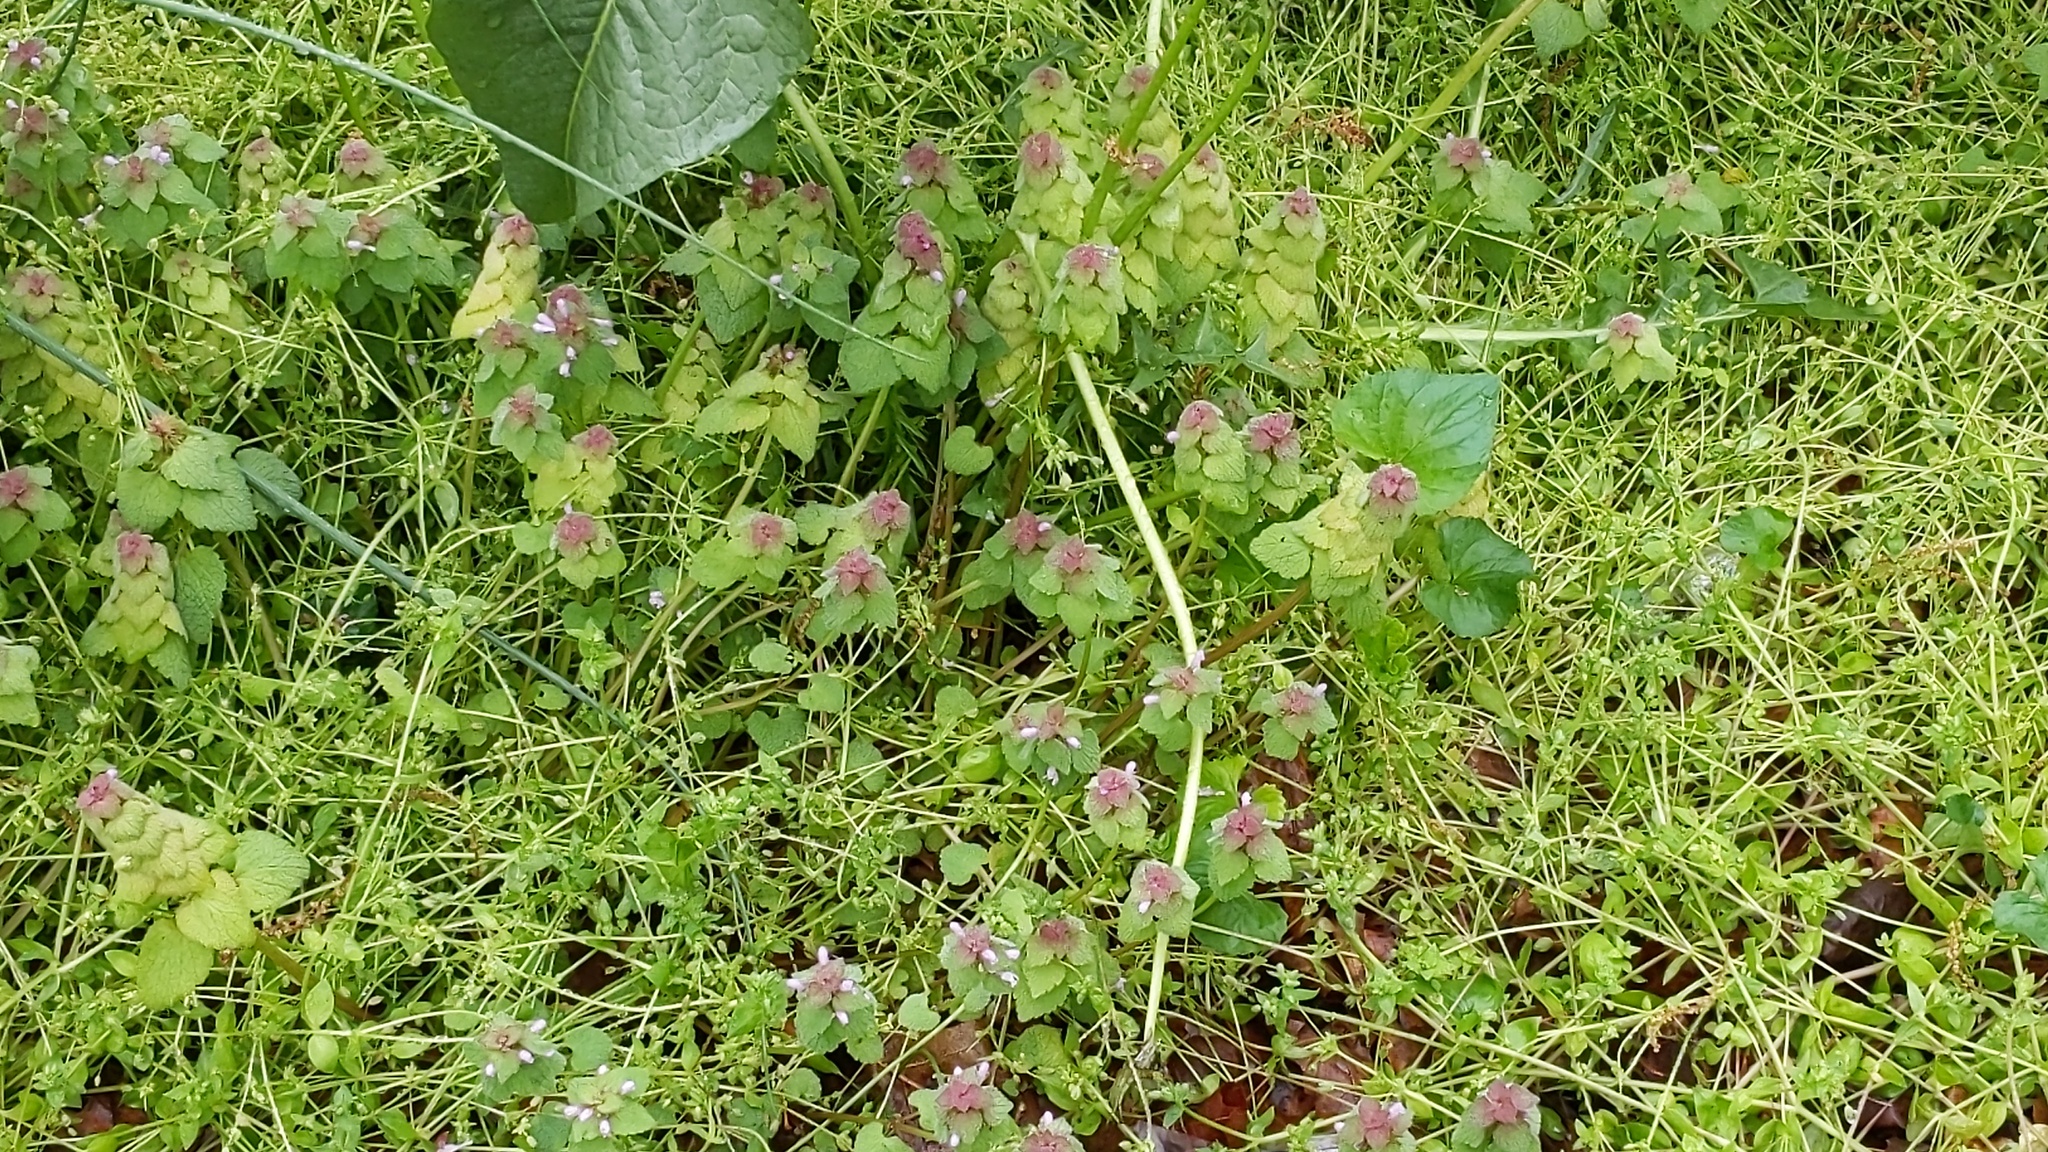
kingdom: Plantae
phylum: Tracheophyta
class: Magnoliopsida
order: Lamiales
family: Lamiaceae
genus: Lamium
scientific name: Lamium purpureum
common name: Red dead-nettle
